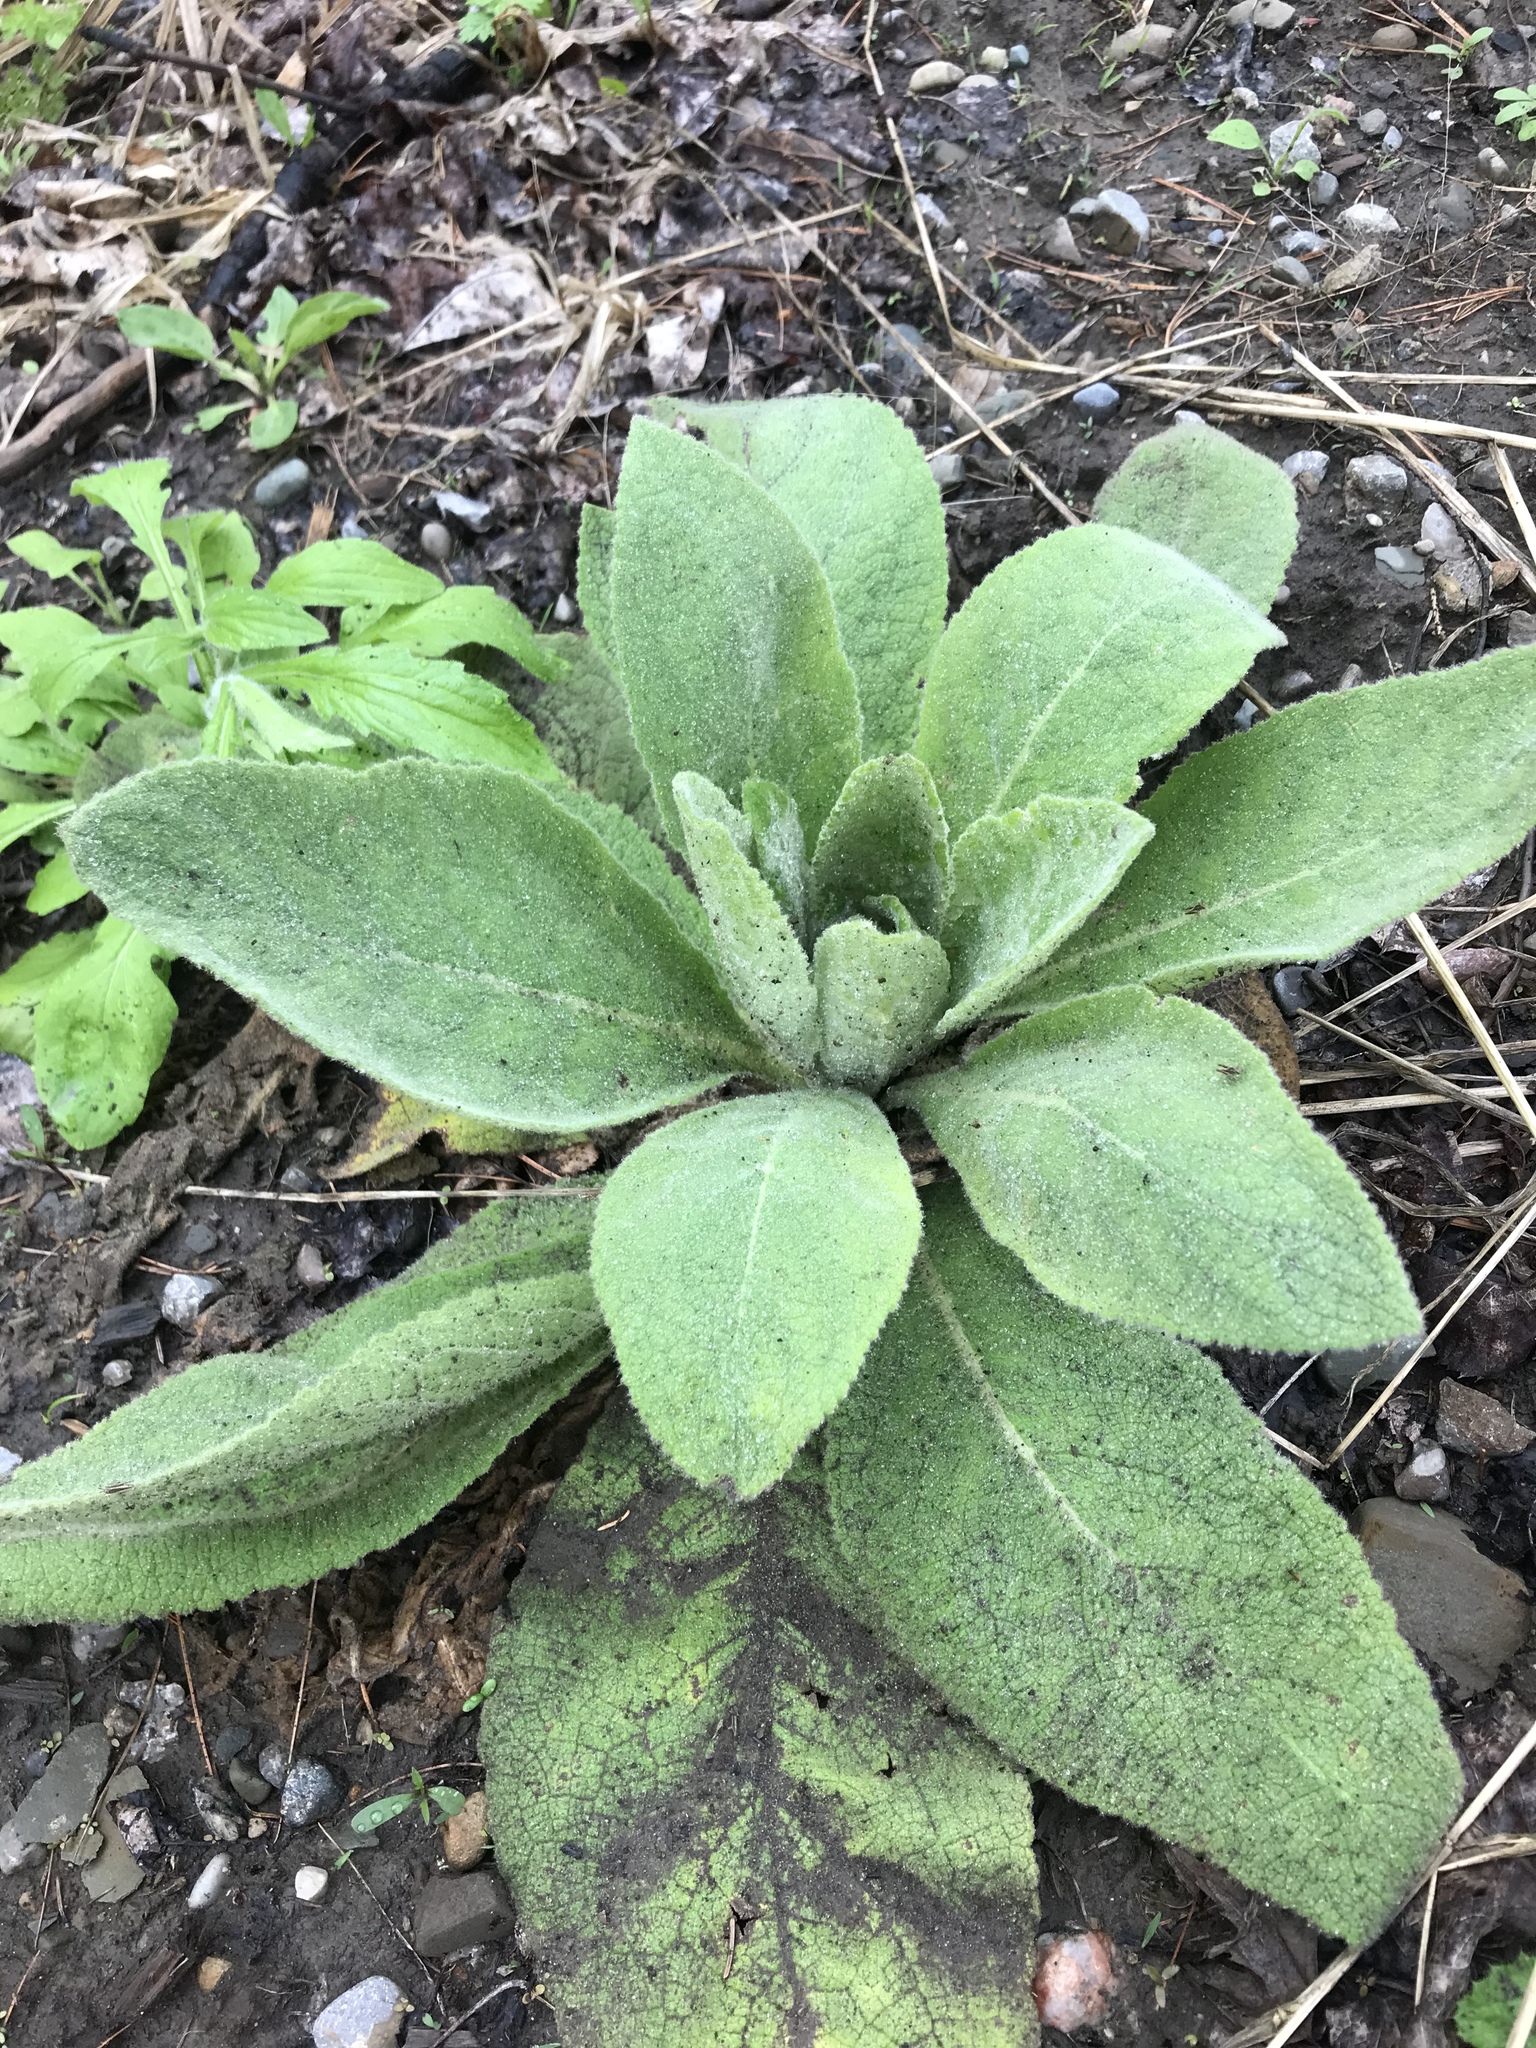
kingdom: Plantae
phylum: Tracheophyta
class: Magnoliopsida
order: Lamiales
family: Scrophulariaceae
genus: Verbascum
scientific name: Verbascum thapsus
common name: Common mullein
